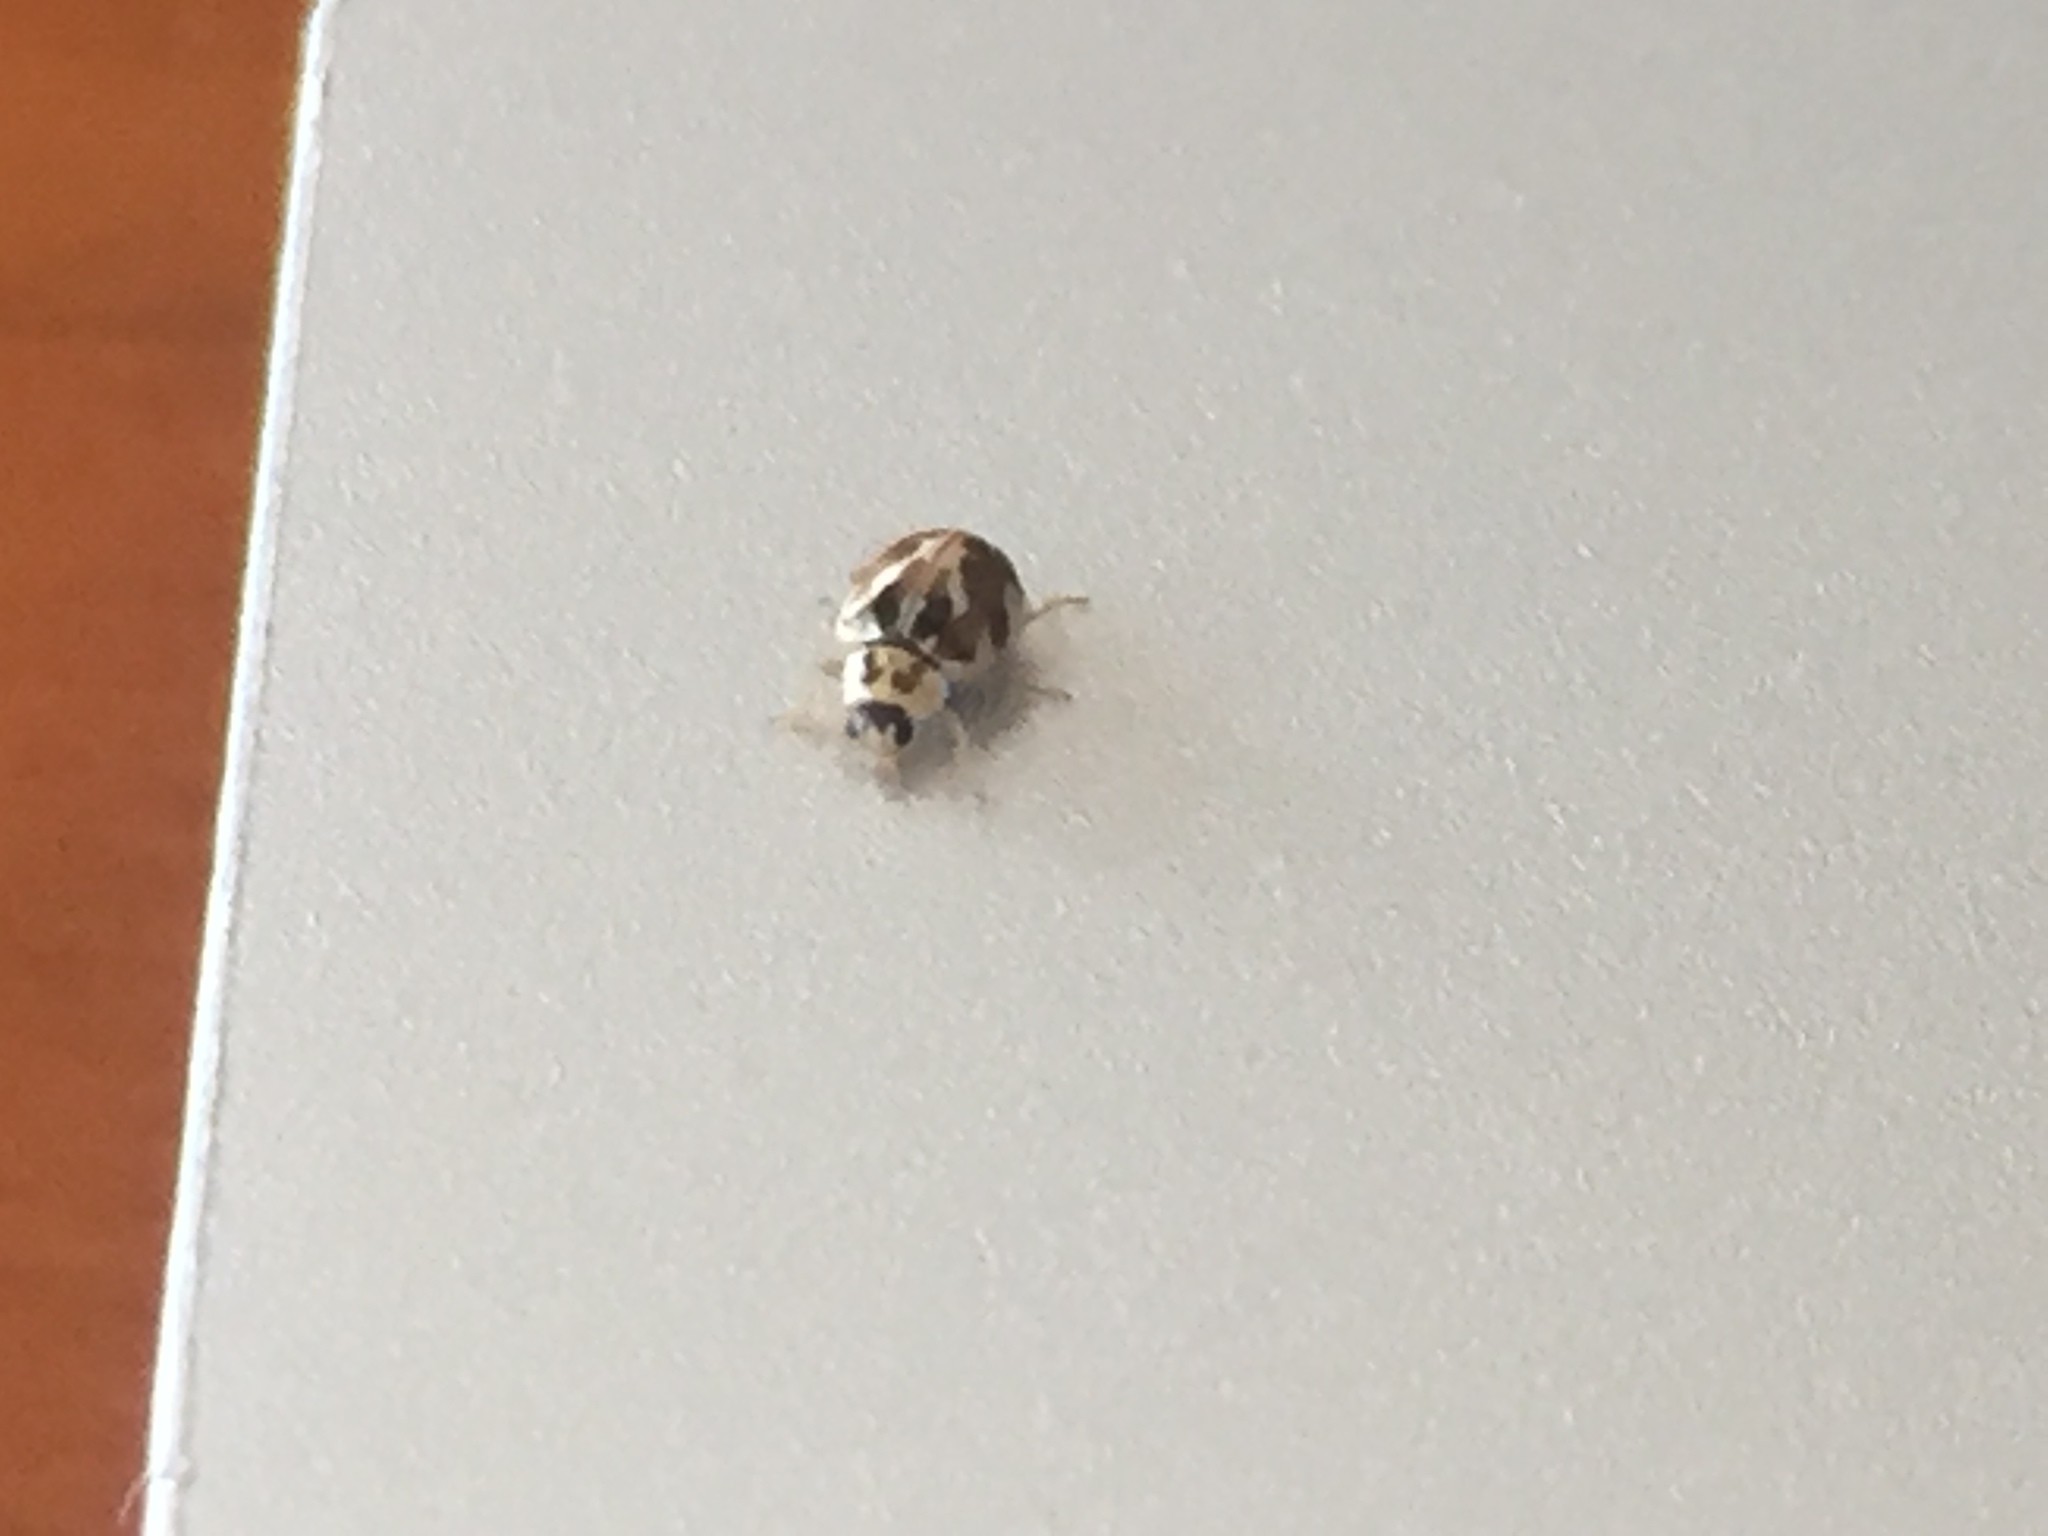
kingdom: Animalia
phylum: Arthropoda
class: Insecta
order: Coleoptera
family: Coccinellidae
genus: Psyllobora
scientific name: Psyllobora vigintimaculata
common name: Ladybird beetle
